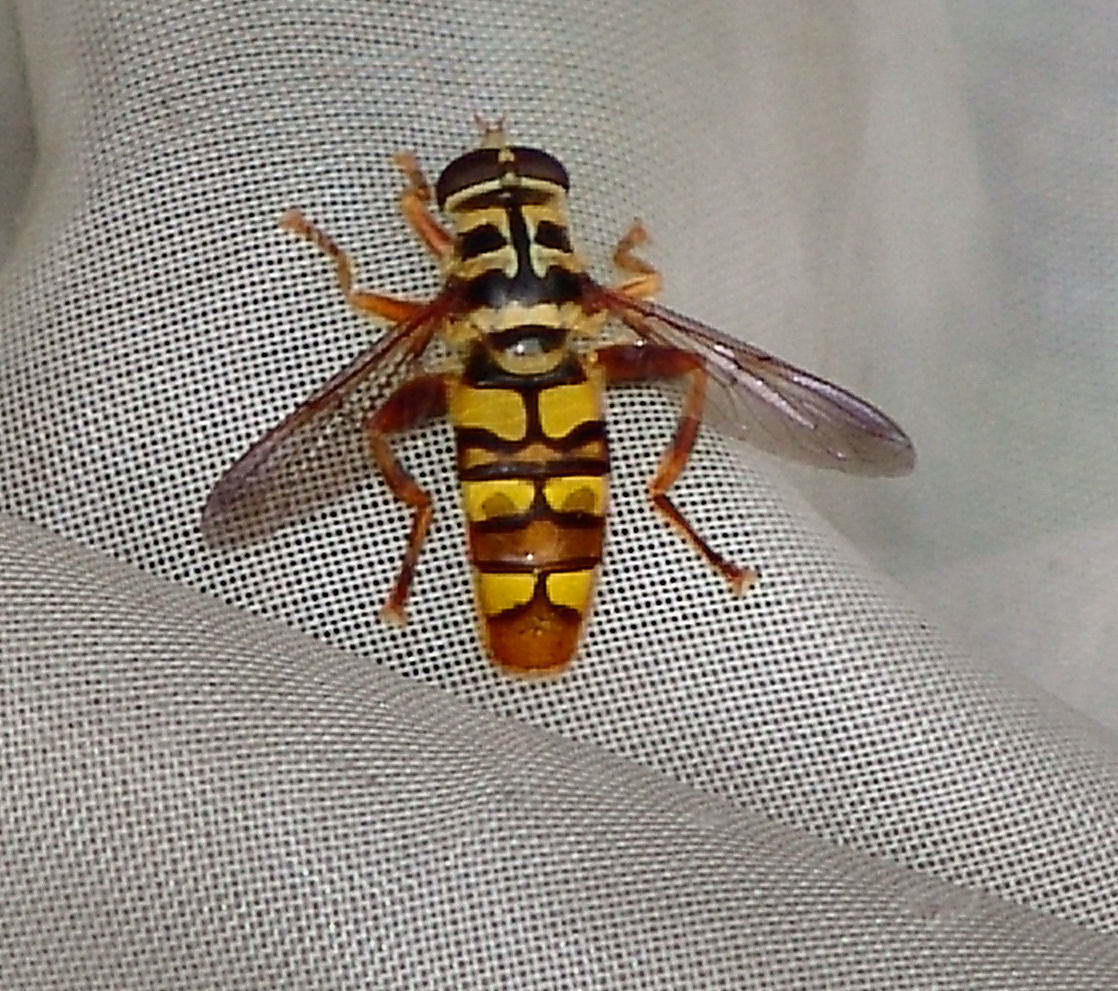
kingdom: Animalia
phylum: Arthropoda
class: Insecta
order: Diptera
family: Syrphidae
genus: Milesia
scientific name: Milesia virginiensis
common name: Virginia giant
